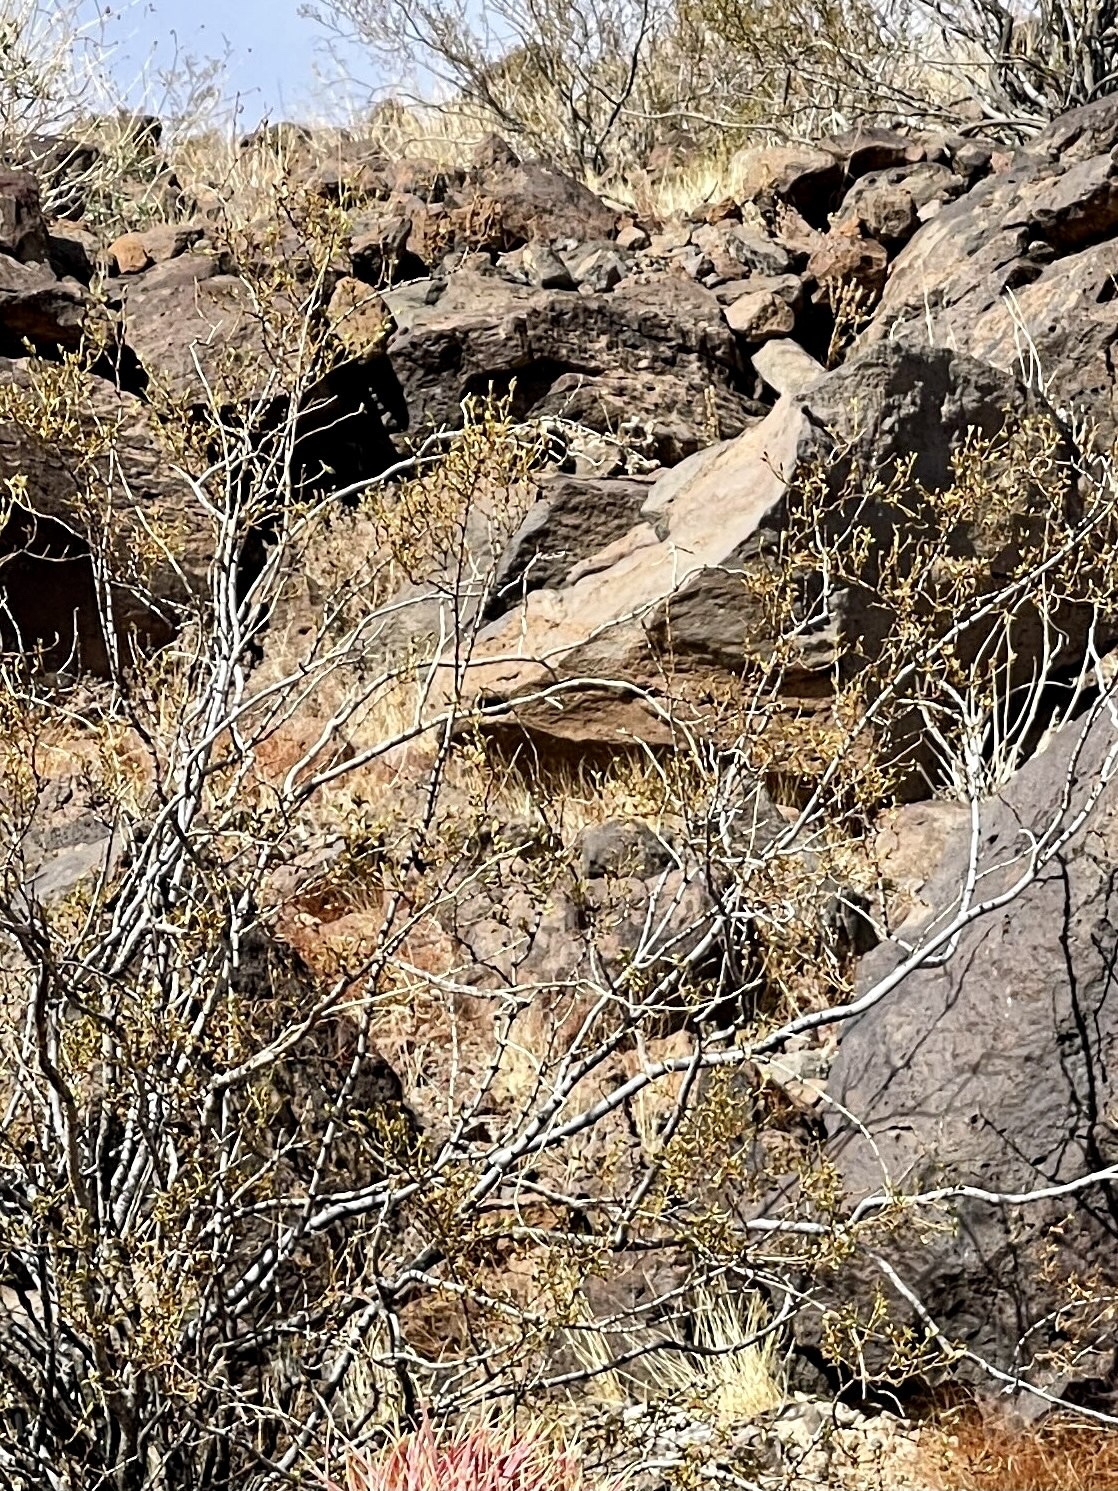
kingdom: Plantae
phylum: Tracheophyta
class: Magnoliopsida
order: Zygophyllales
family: Zygophyllaceae
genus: Larrea
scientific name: Larrea tridentata
